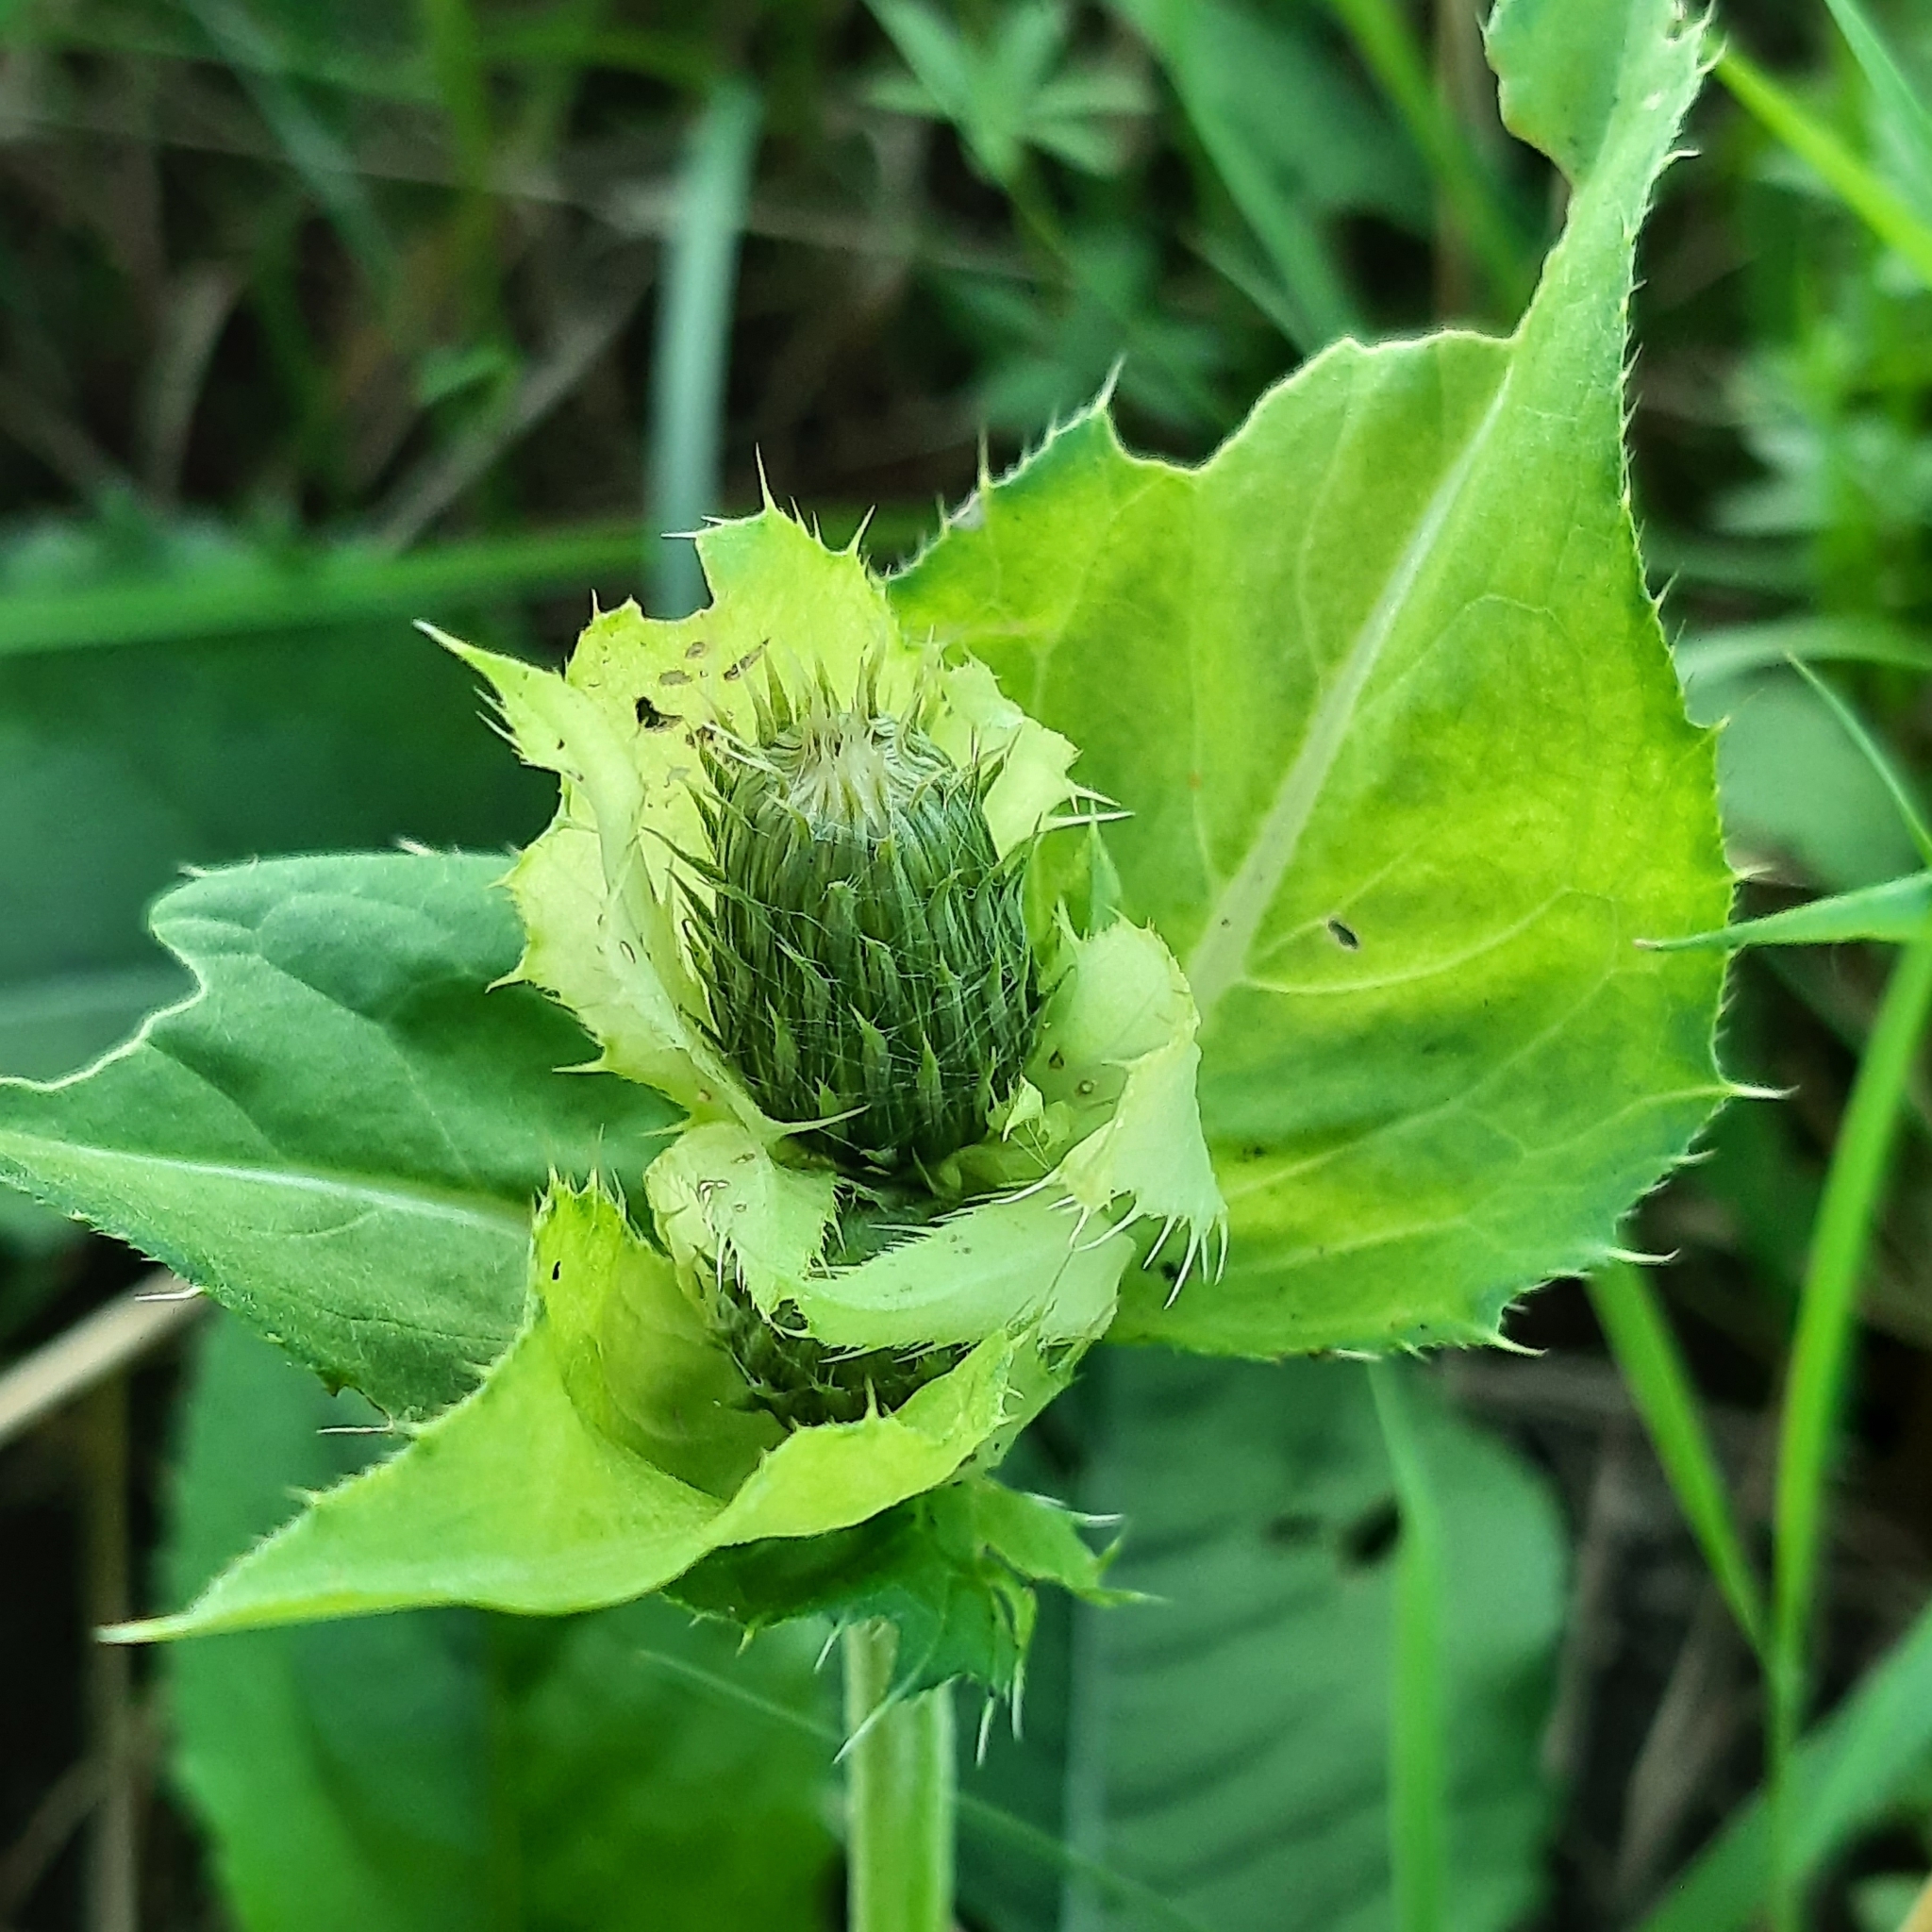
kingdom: Plantae
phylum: Tracheophyta
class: Magnoliopsida
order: Asterales
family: Asteraceae
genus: Cirsium
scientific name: Cirsium oleraceum
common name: Cabbage thistle
